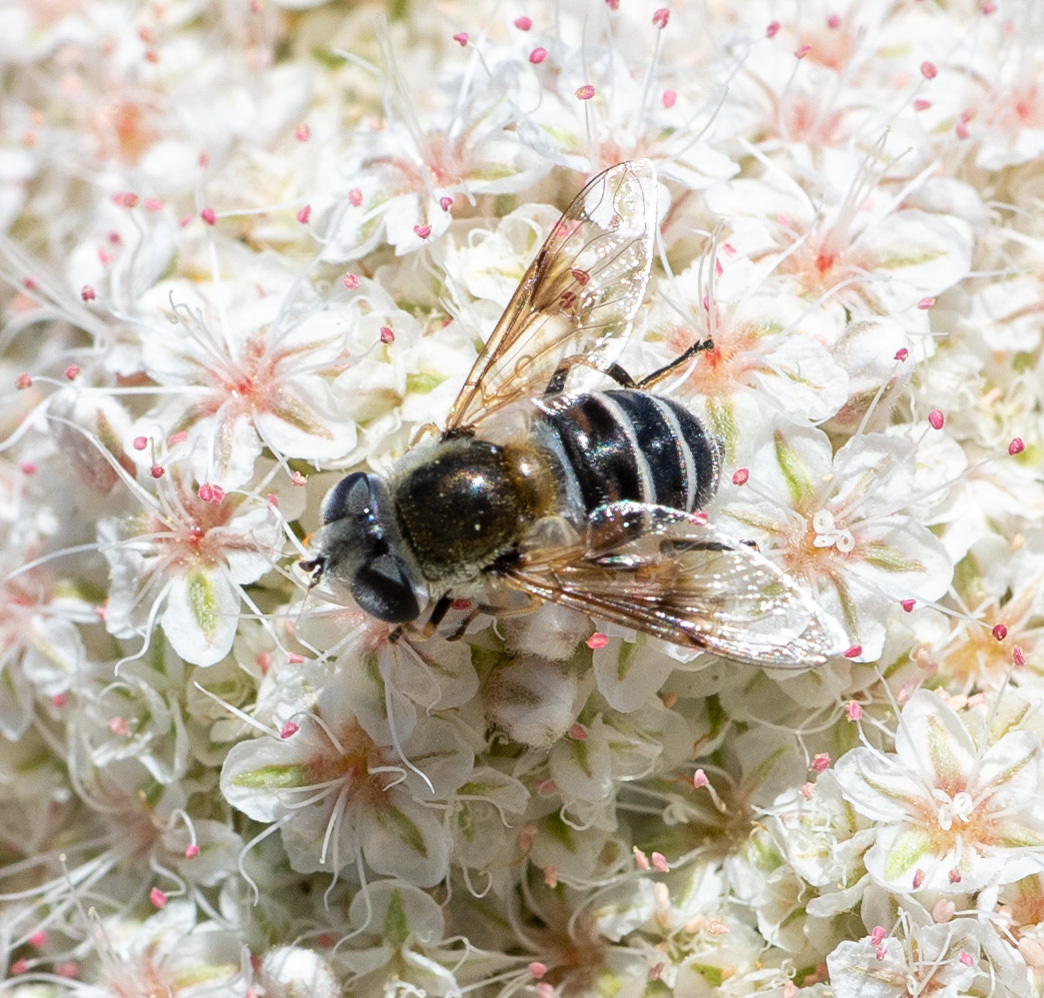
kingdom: Animalia
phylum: Arthropoda
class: Insecta
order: Diptera
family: Syrphidae
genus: Eristalis
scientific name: Eristalis stipator
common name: Yellow-shouldered drone fly
